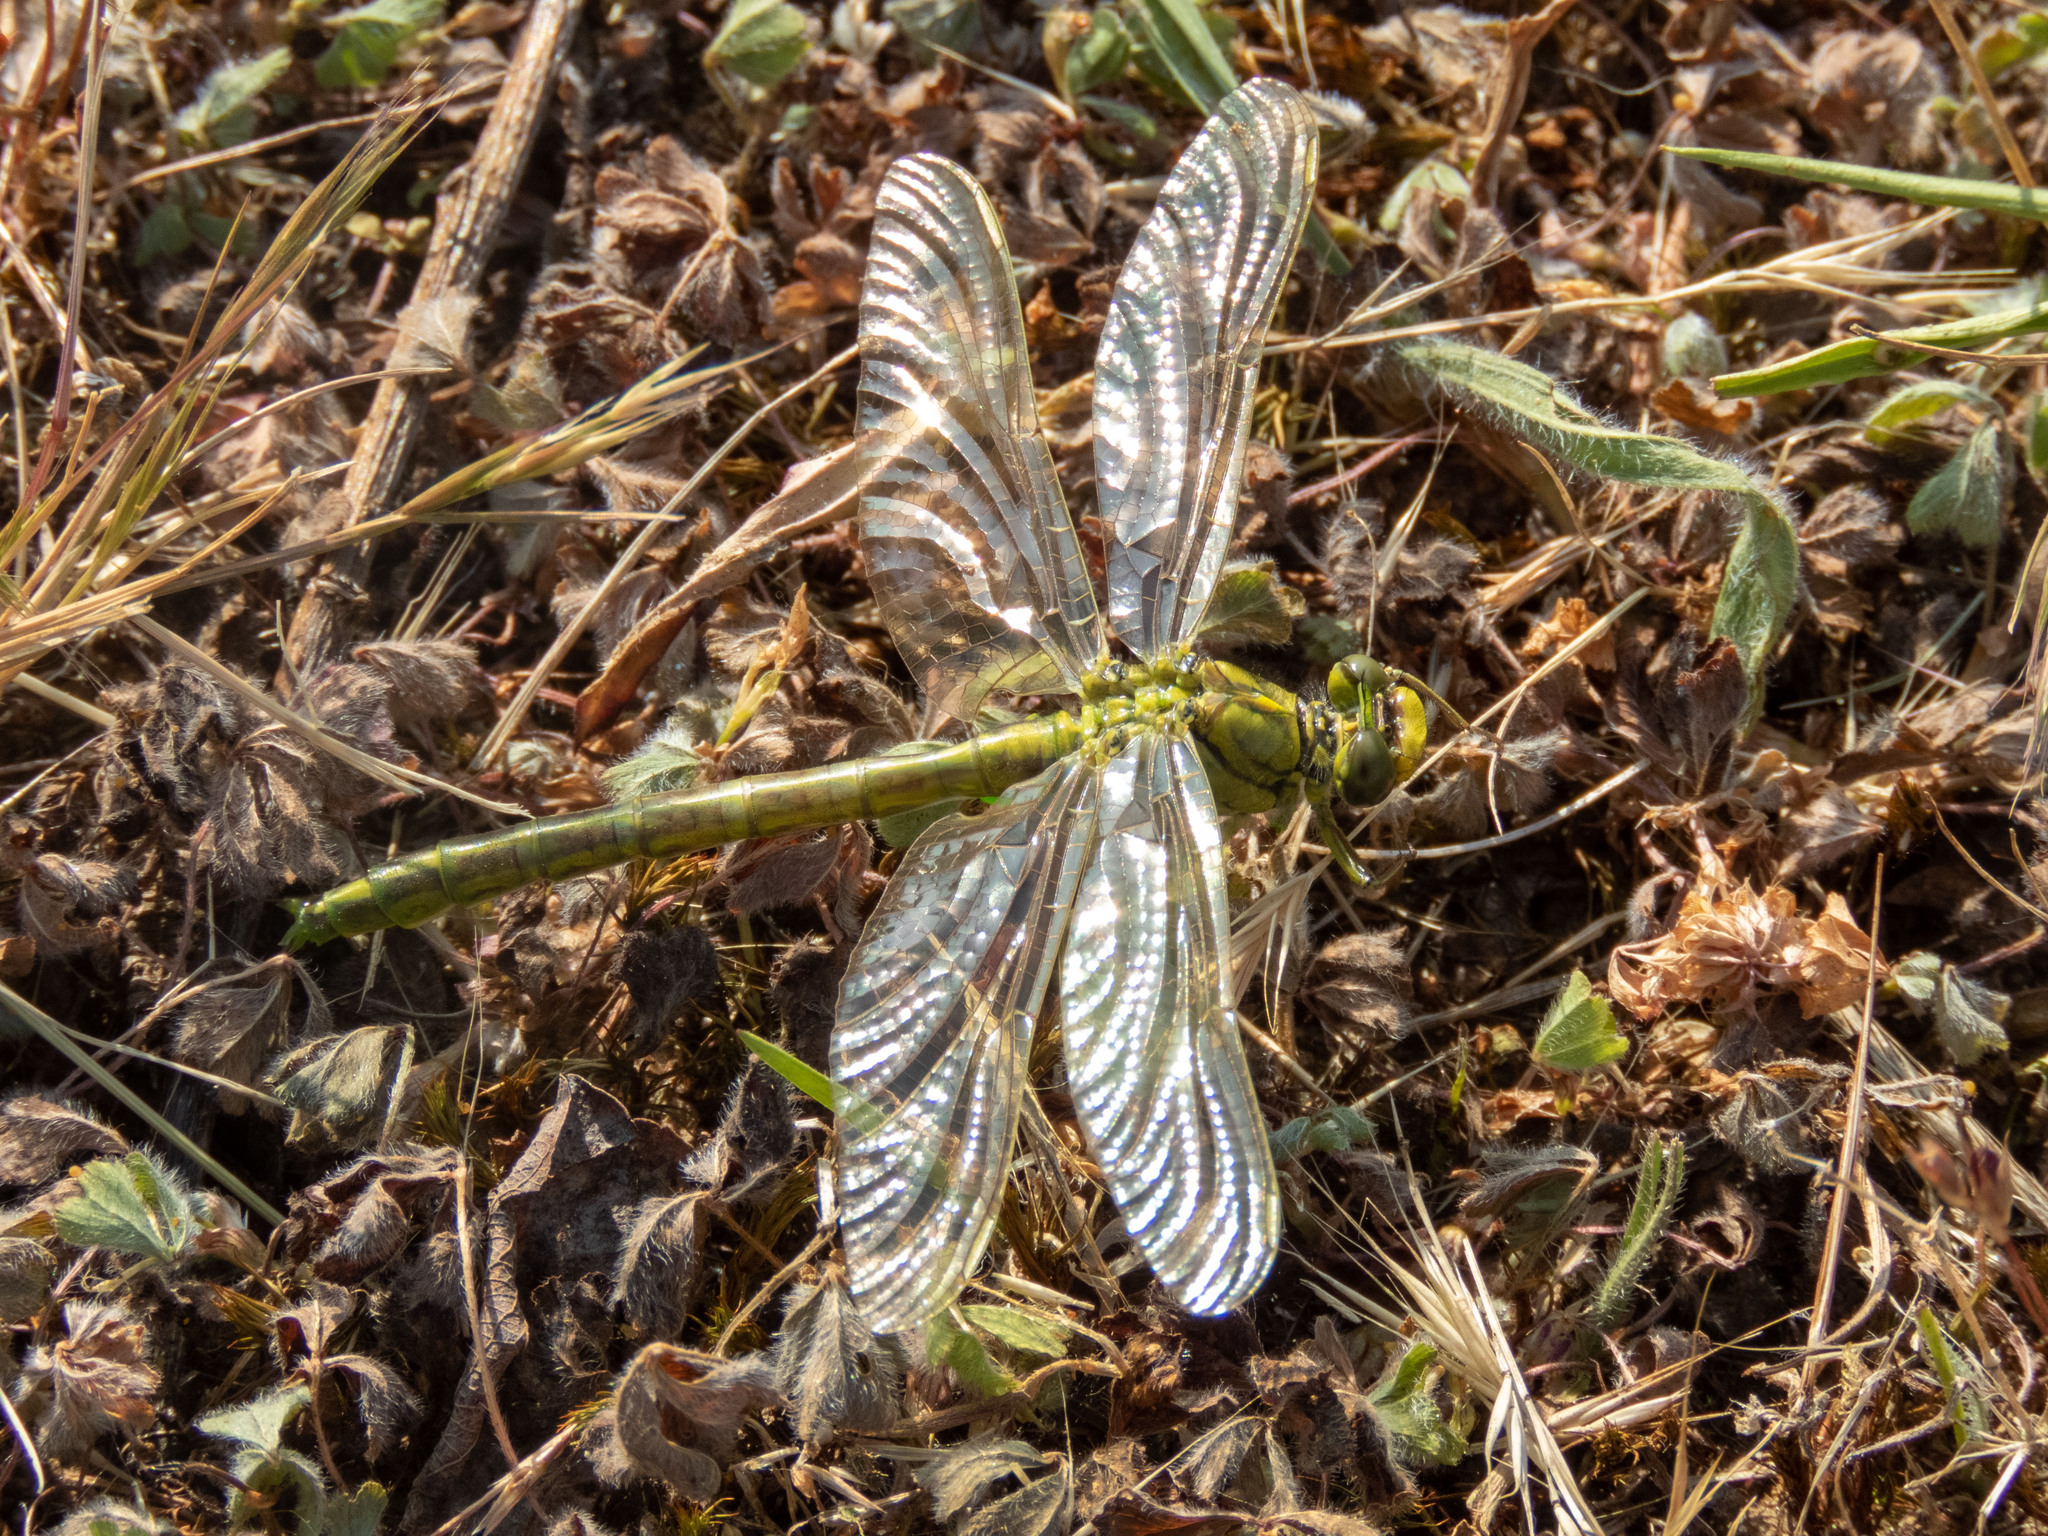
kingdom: Animalia
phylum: Arthropoda
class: Insecta
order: Odonata
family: Gomphidae
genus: Gomphus
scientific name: Gomphus pulchellus
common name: Western clubtail
